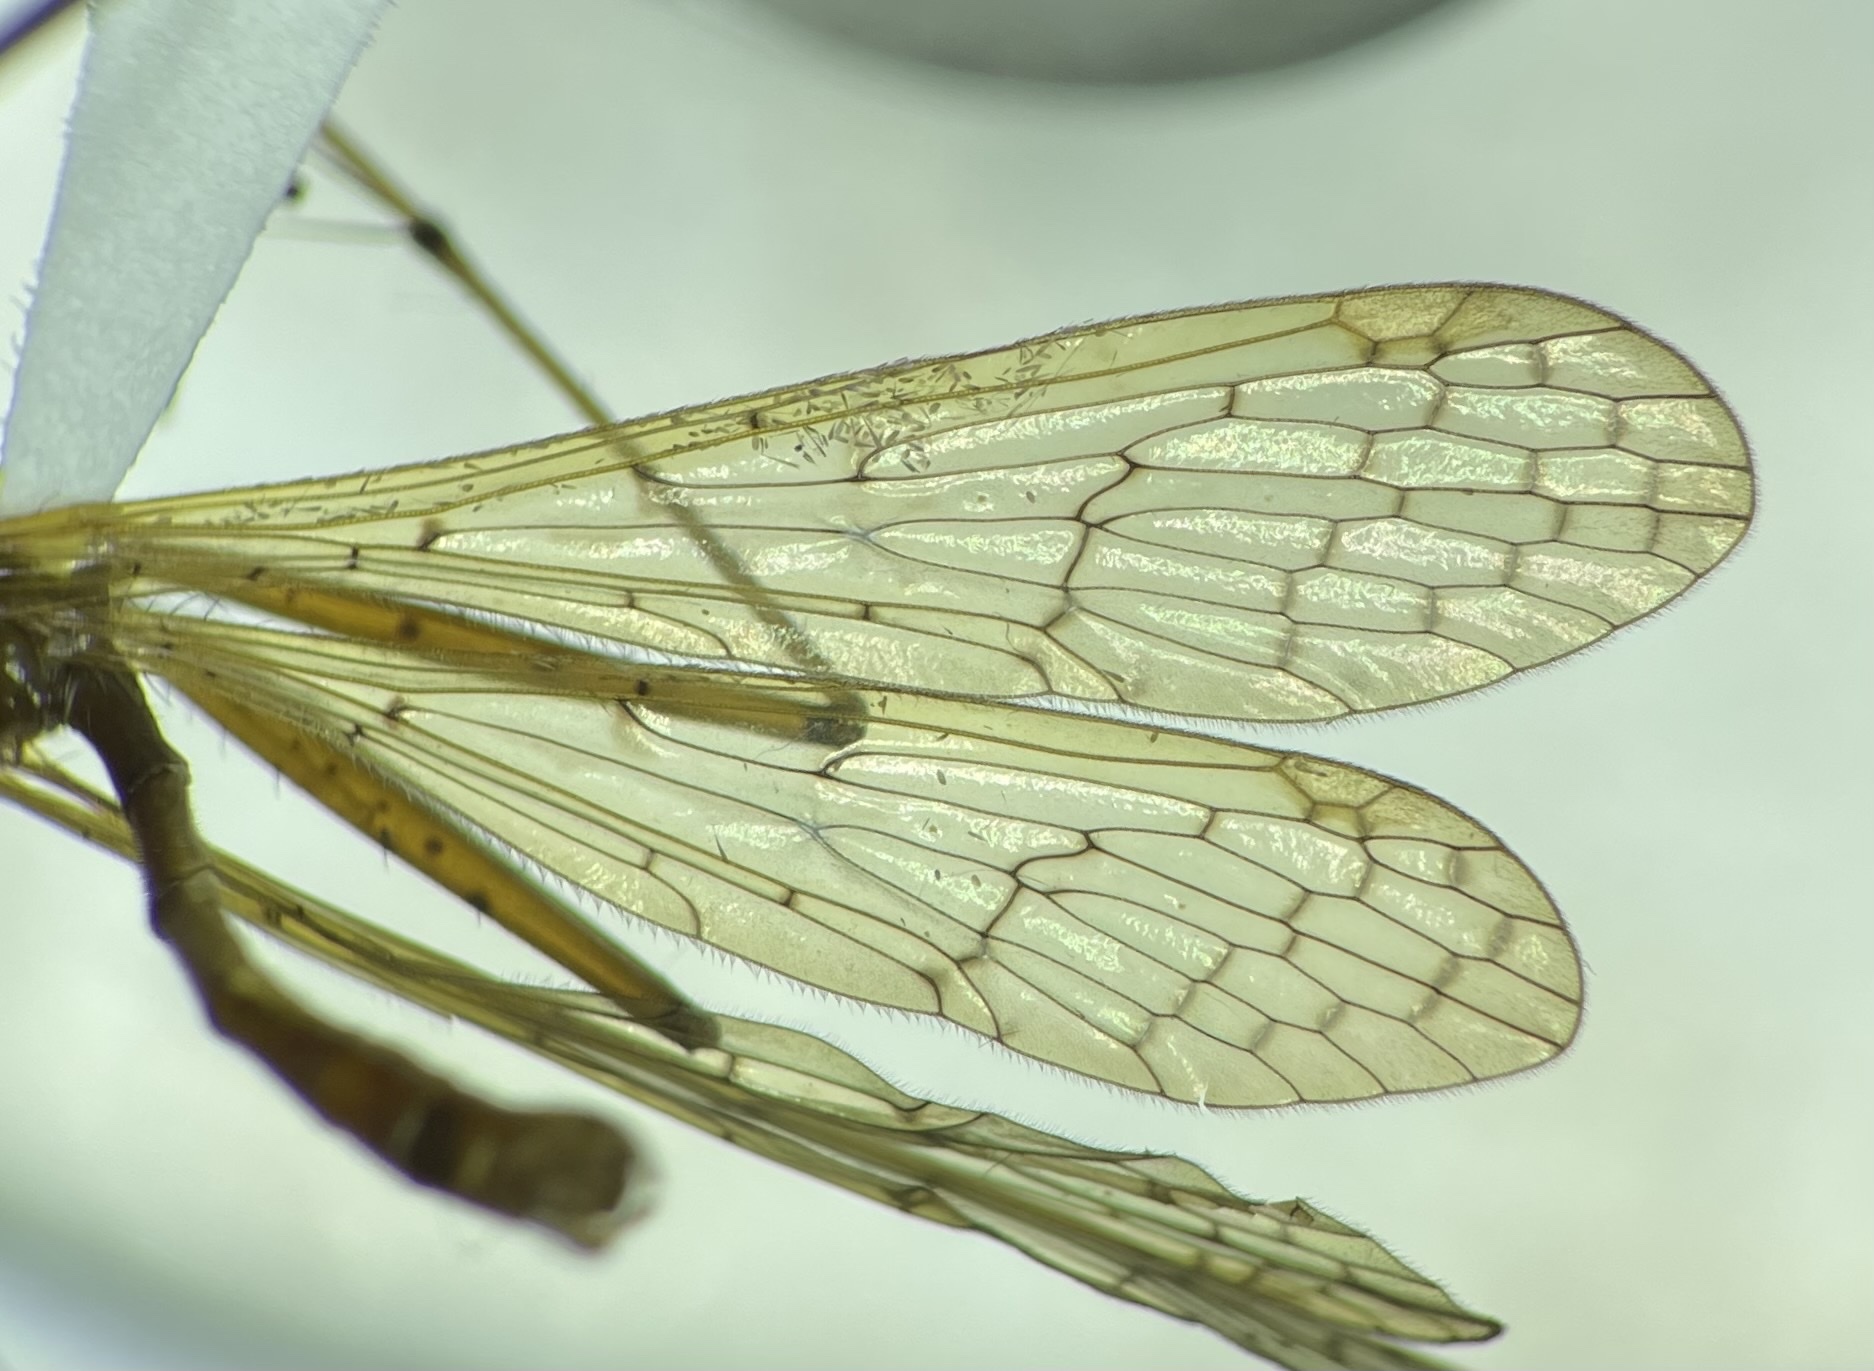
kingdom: Animalia
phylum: Arthropoda
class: Insecta
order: Mecoptera
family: Bittacidae
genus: Bittacus
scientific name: Bittacus punctiger
